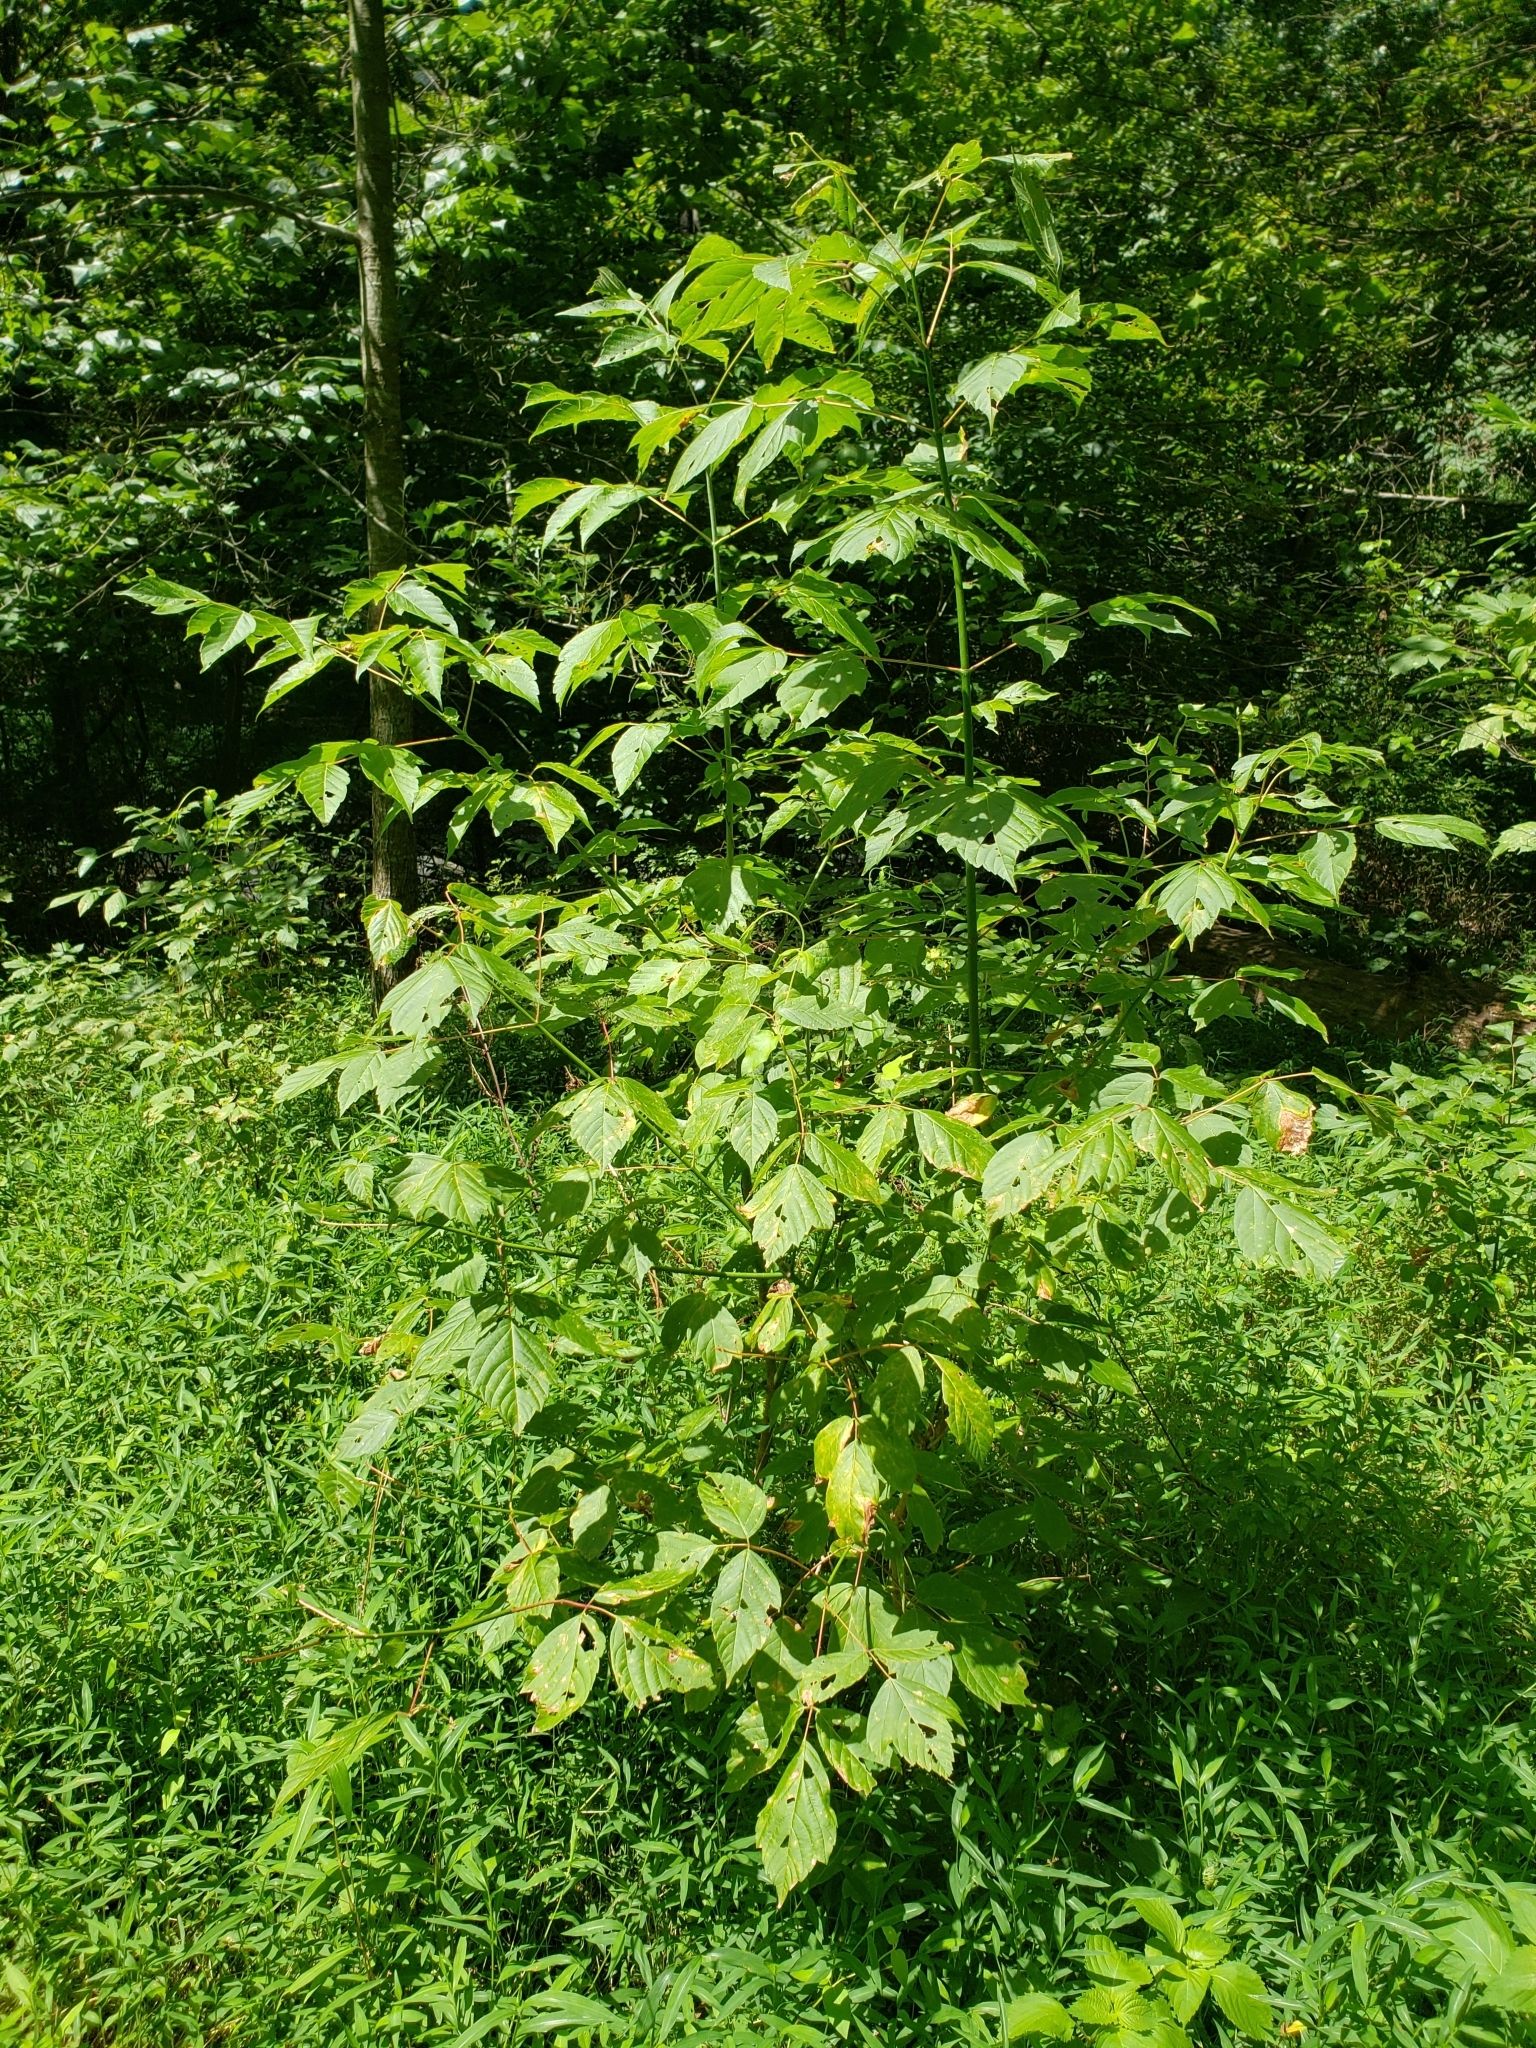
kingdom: Plantae
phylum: Tracheophyta
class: Magnoliopsida
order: Sapindales
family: Sapindaceae
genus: Acer
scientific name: Acer negundo
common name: Ashleaf maple
